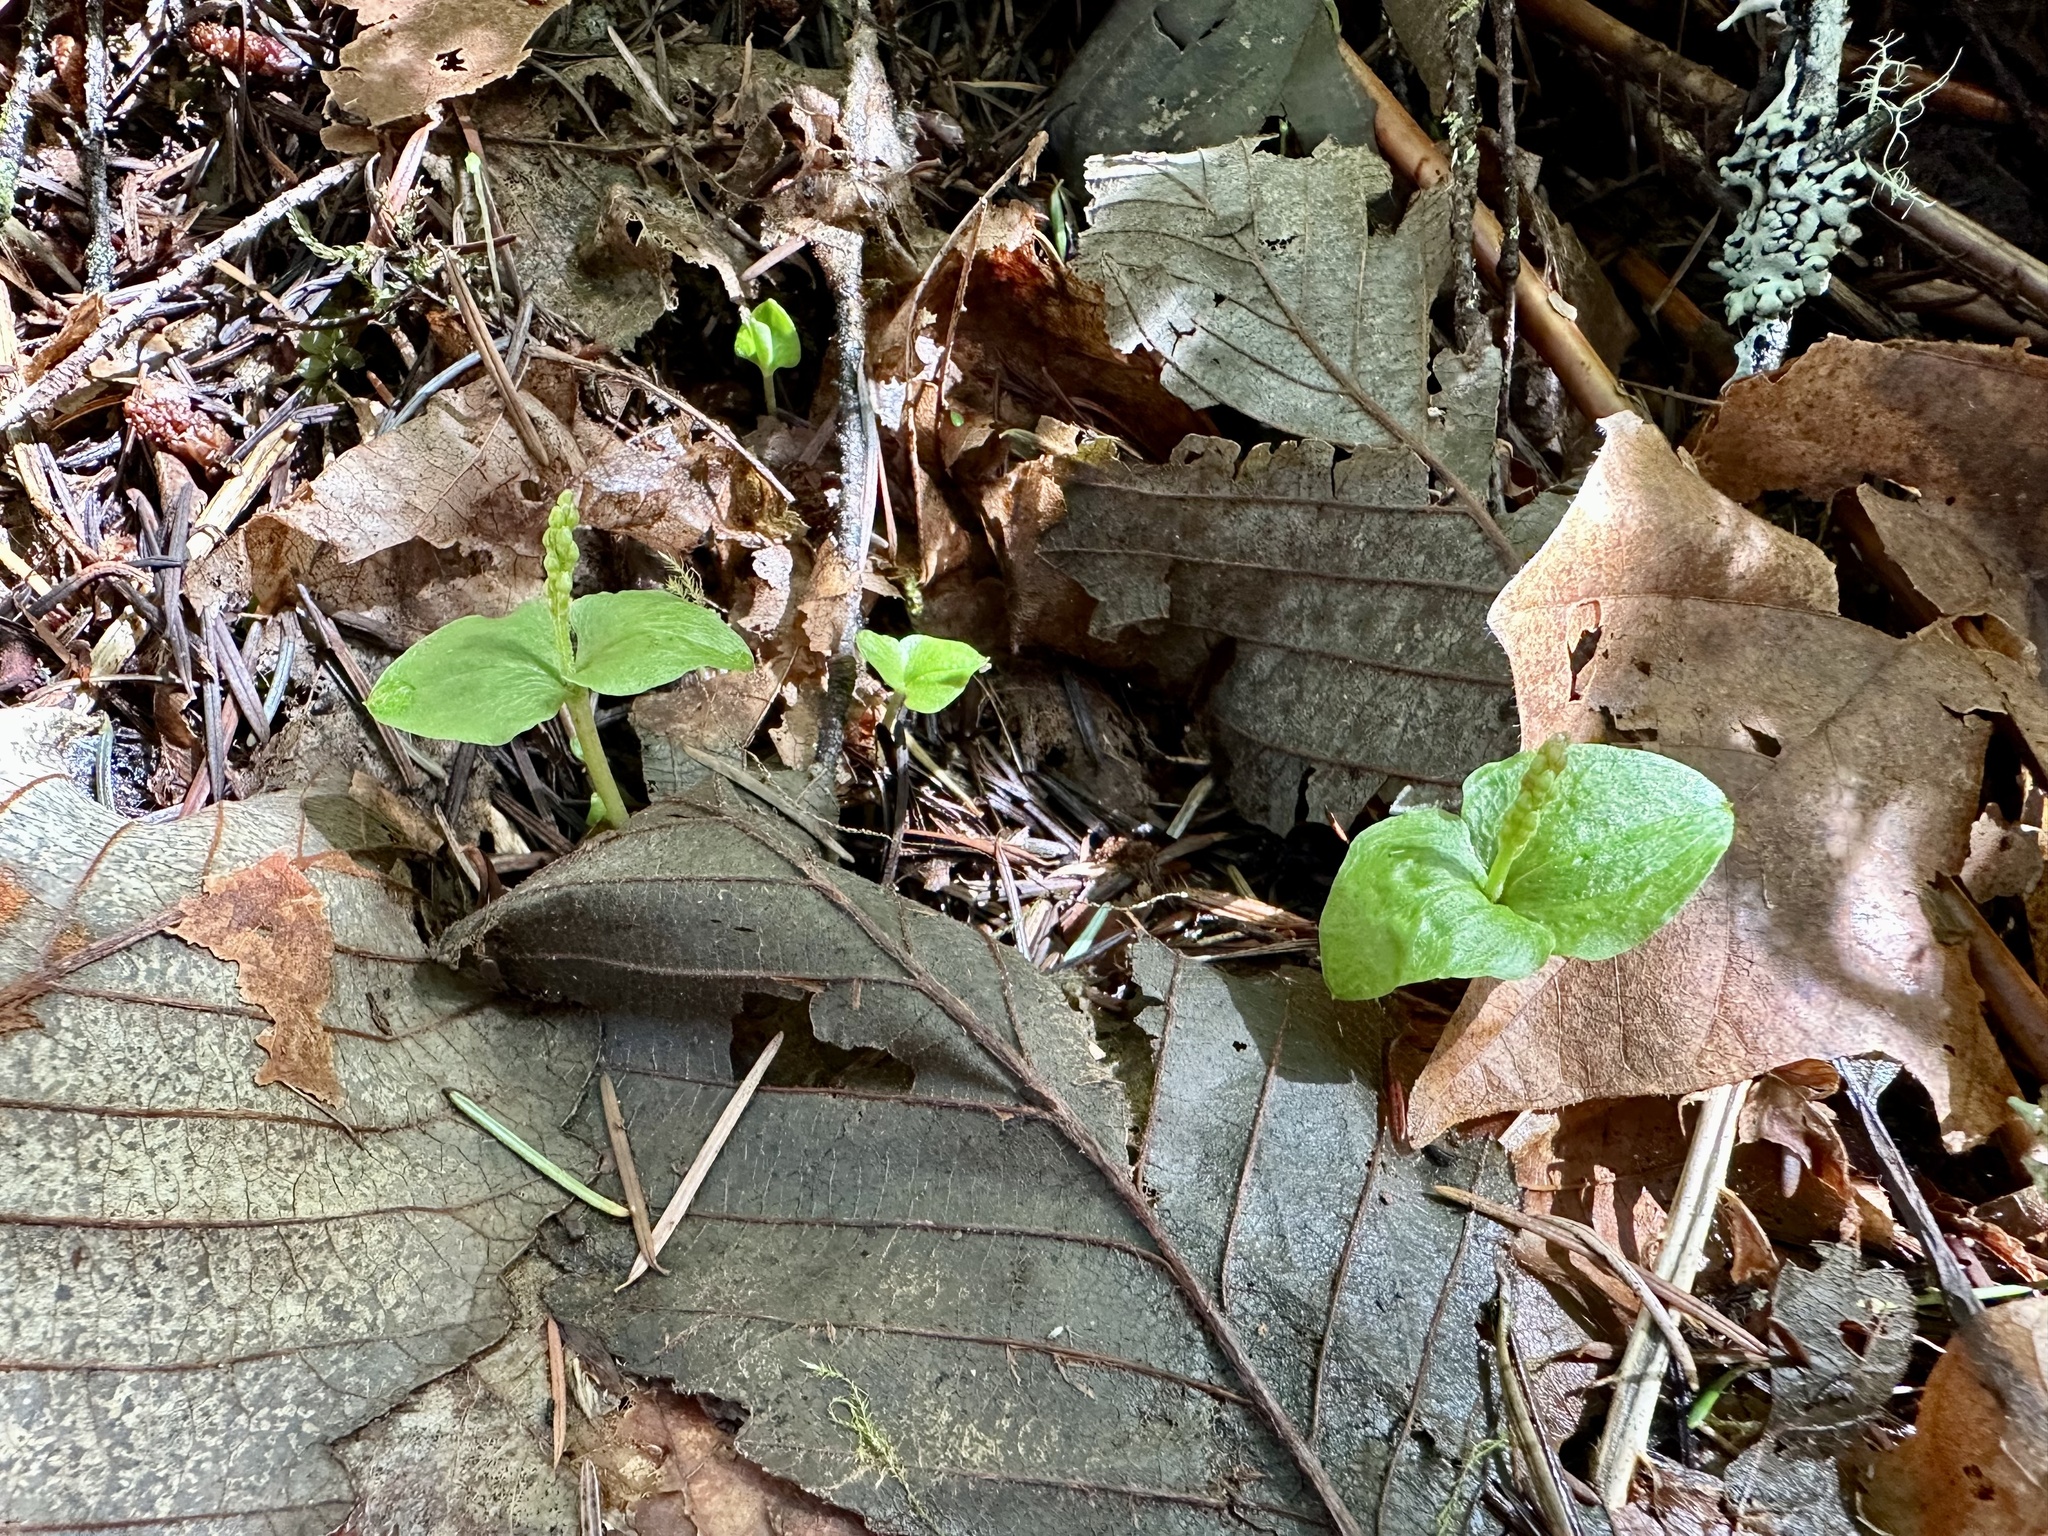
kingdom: Plantae
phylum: Tracheophyta
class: Liliopsida
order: Asparagales
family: Orchidaceae
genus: Neottia
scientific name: Neottia cordata
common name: Lesser twayblade
